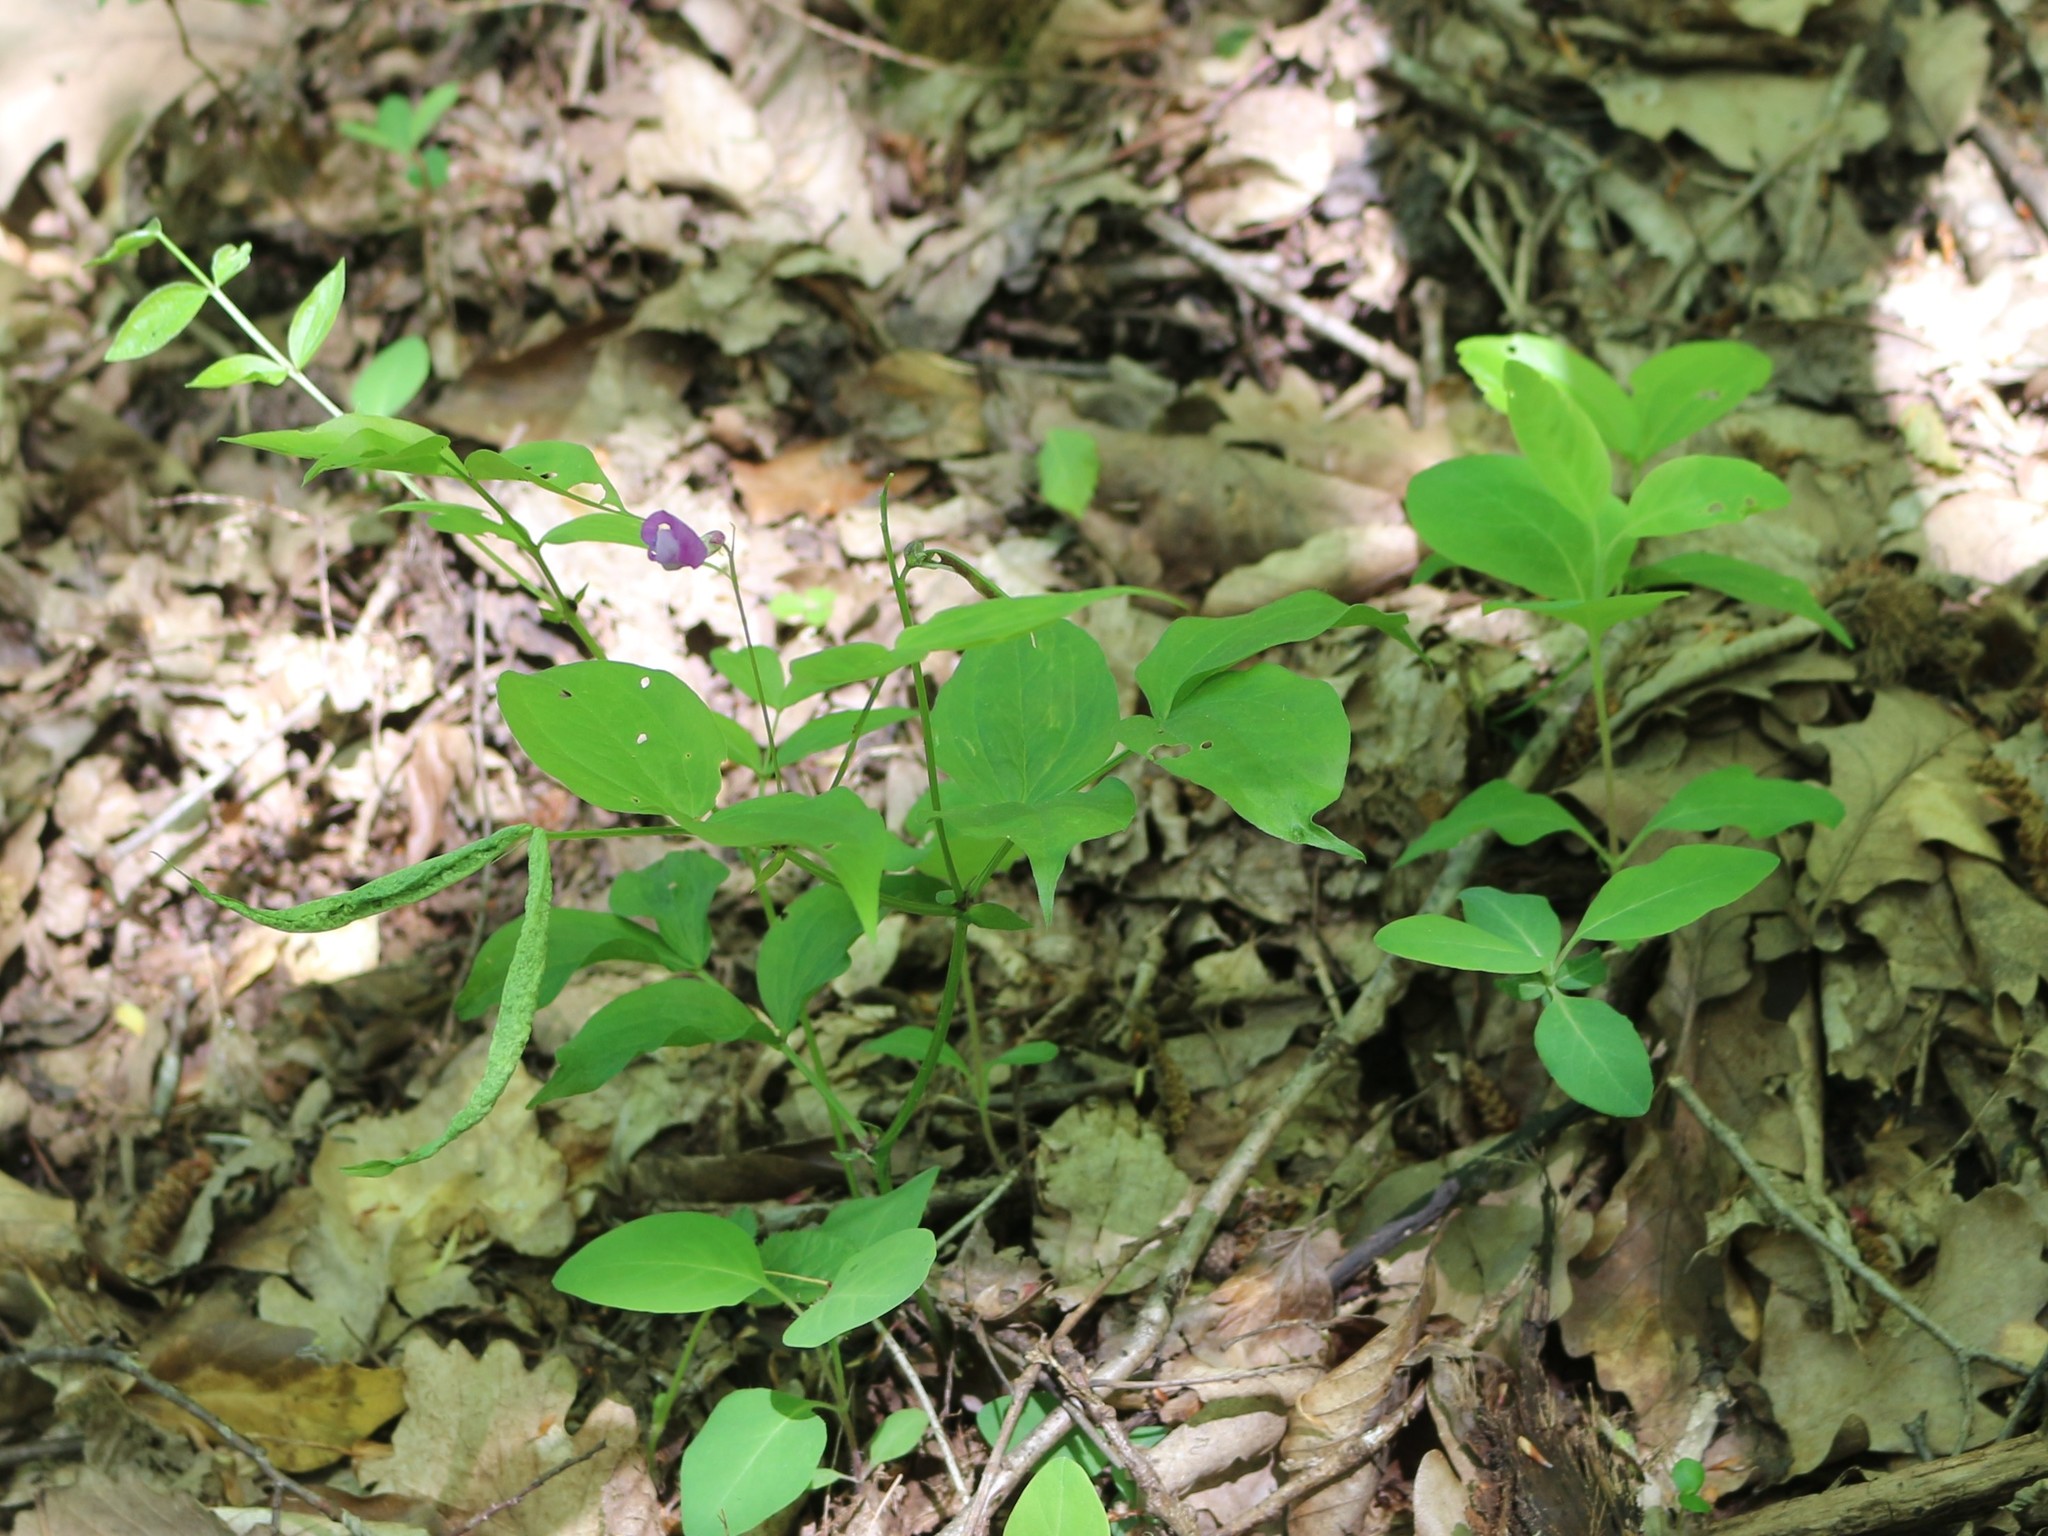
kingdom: Plantae
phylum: Tracheophyta
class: Magnoliopsida
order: Fabales
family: Fabaceae
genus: Lathyrus
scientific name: Lathyrus vernus
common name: Spring pea
